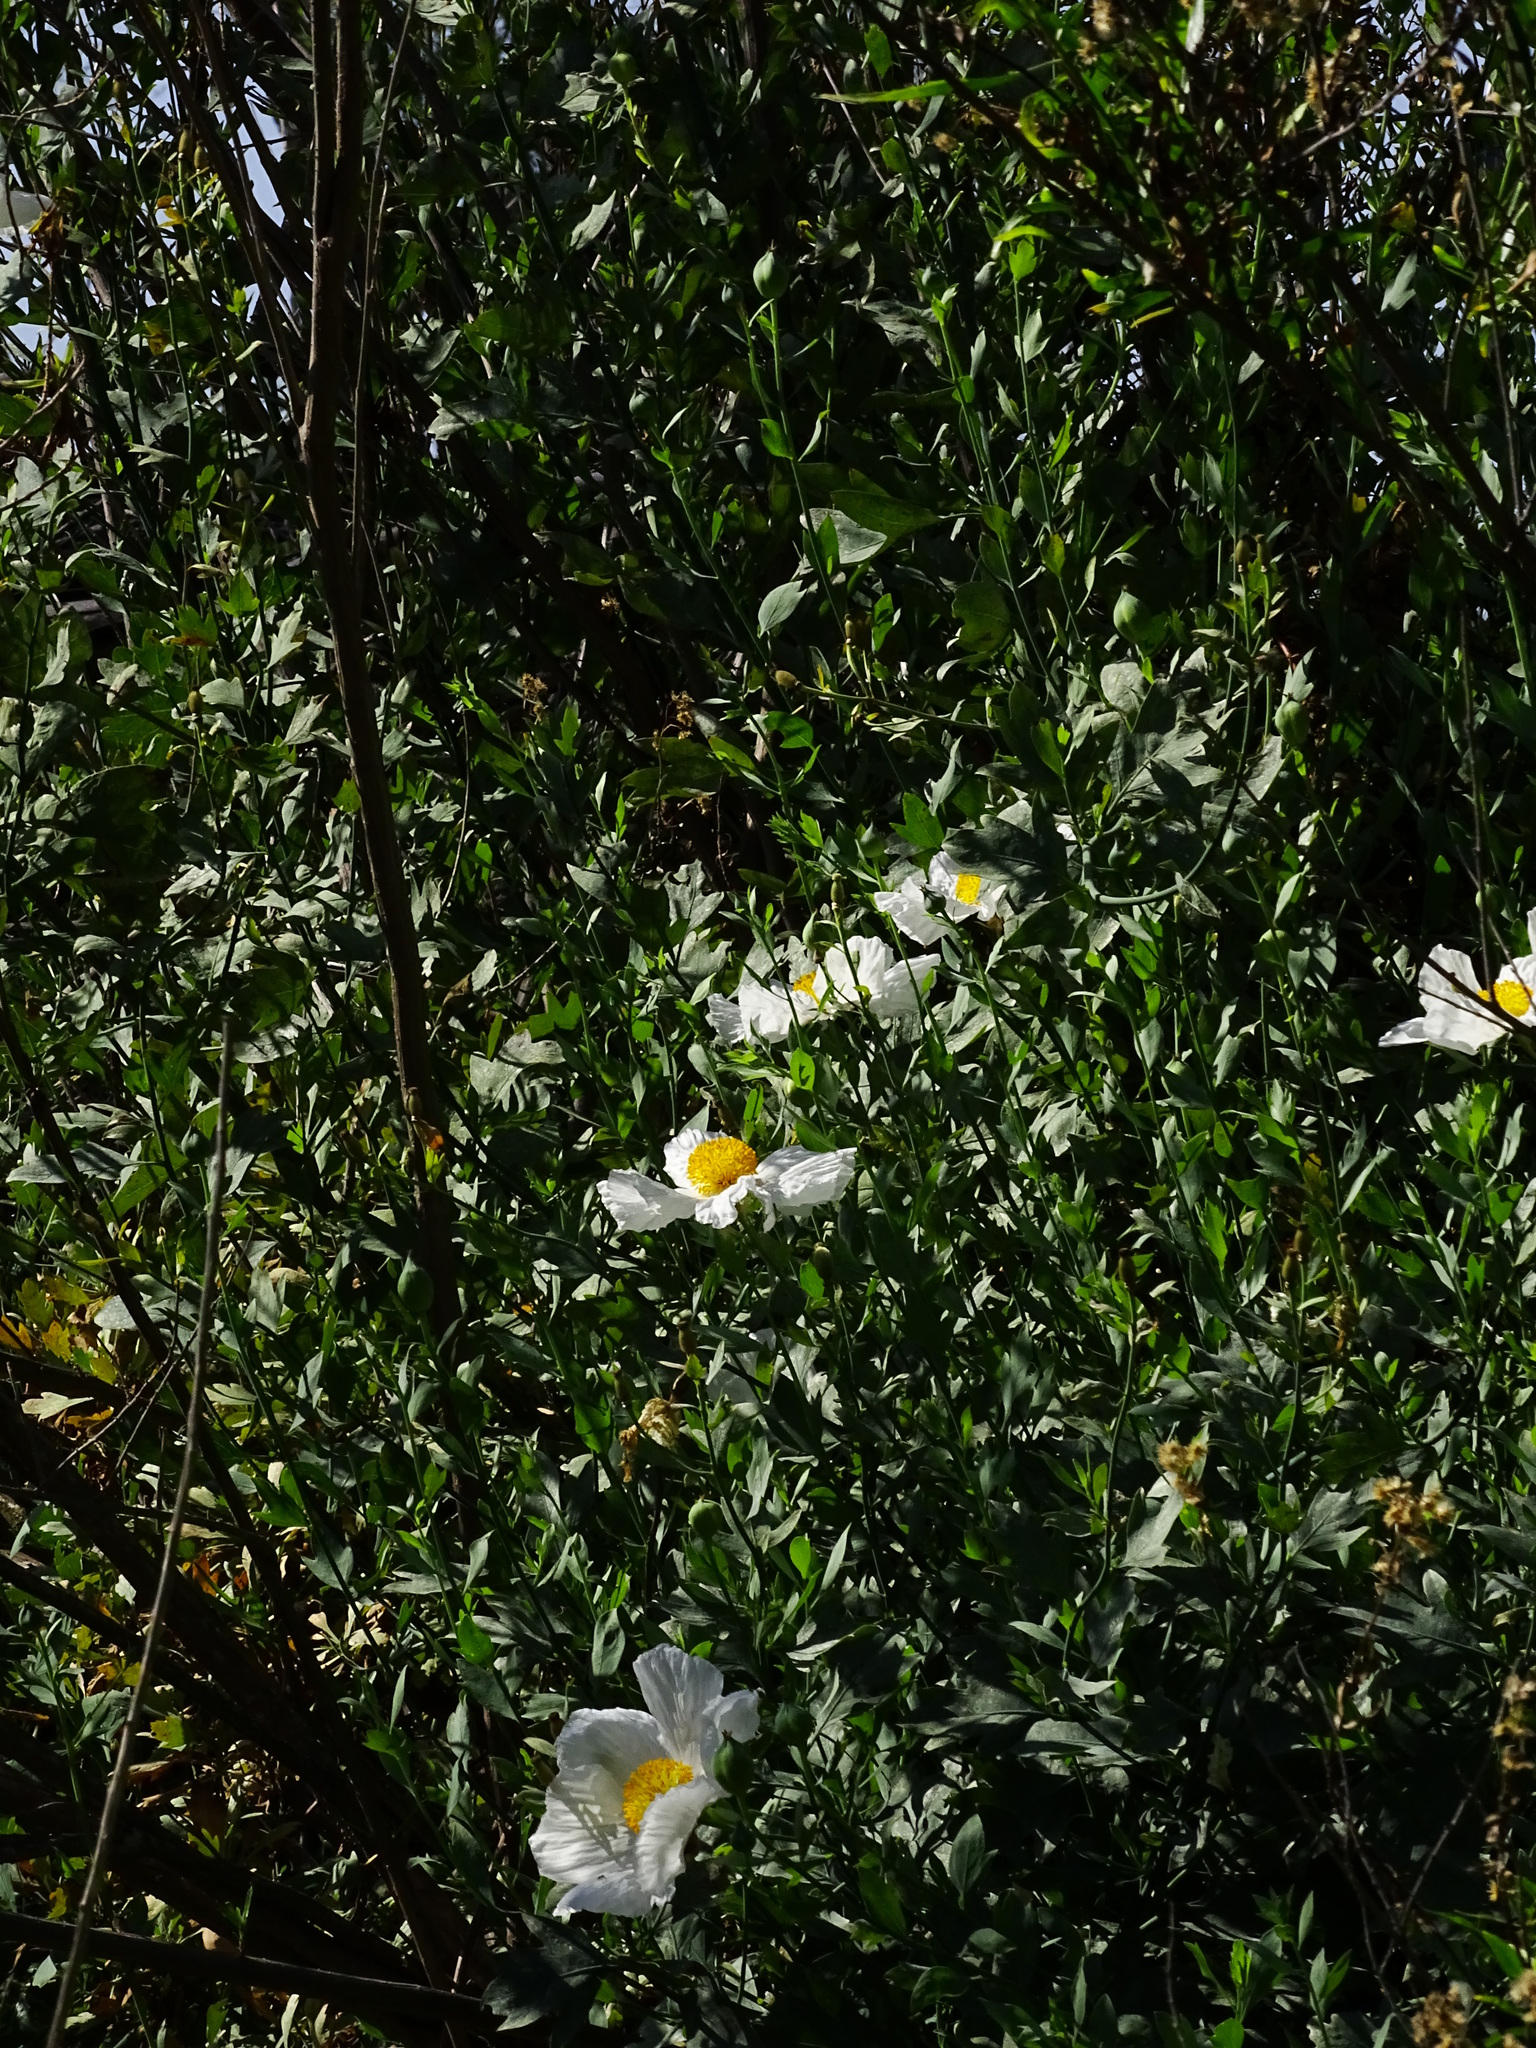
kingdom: Plantae
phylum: Tracheophyta
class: Magnoliopsida
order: Ranunculales
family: Papaveraceae
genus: Romneya
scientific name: Romneya coulteri
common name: California tree-poppy
